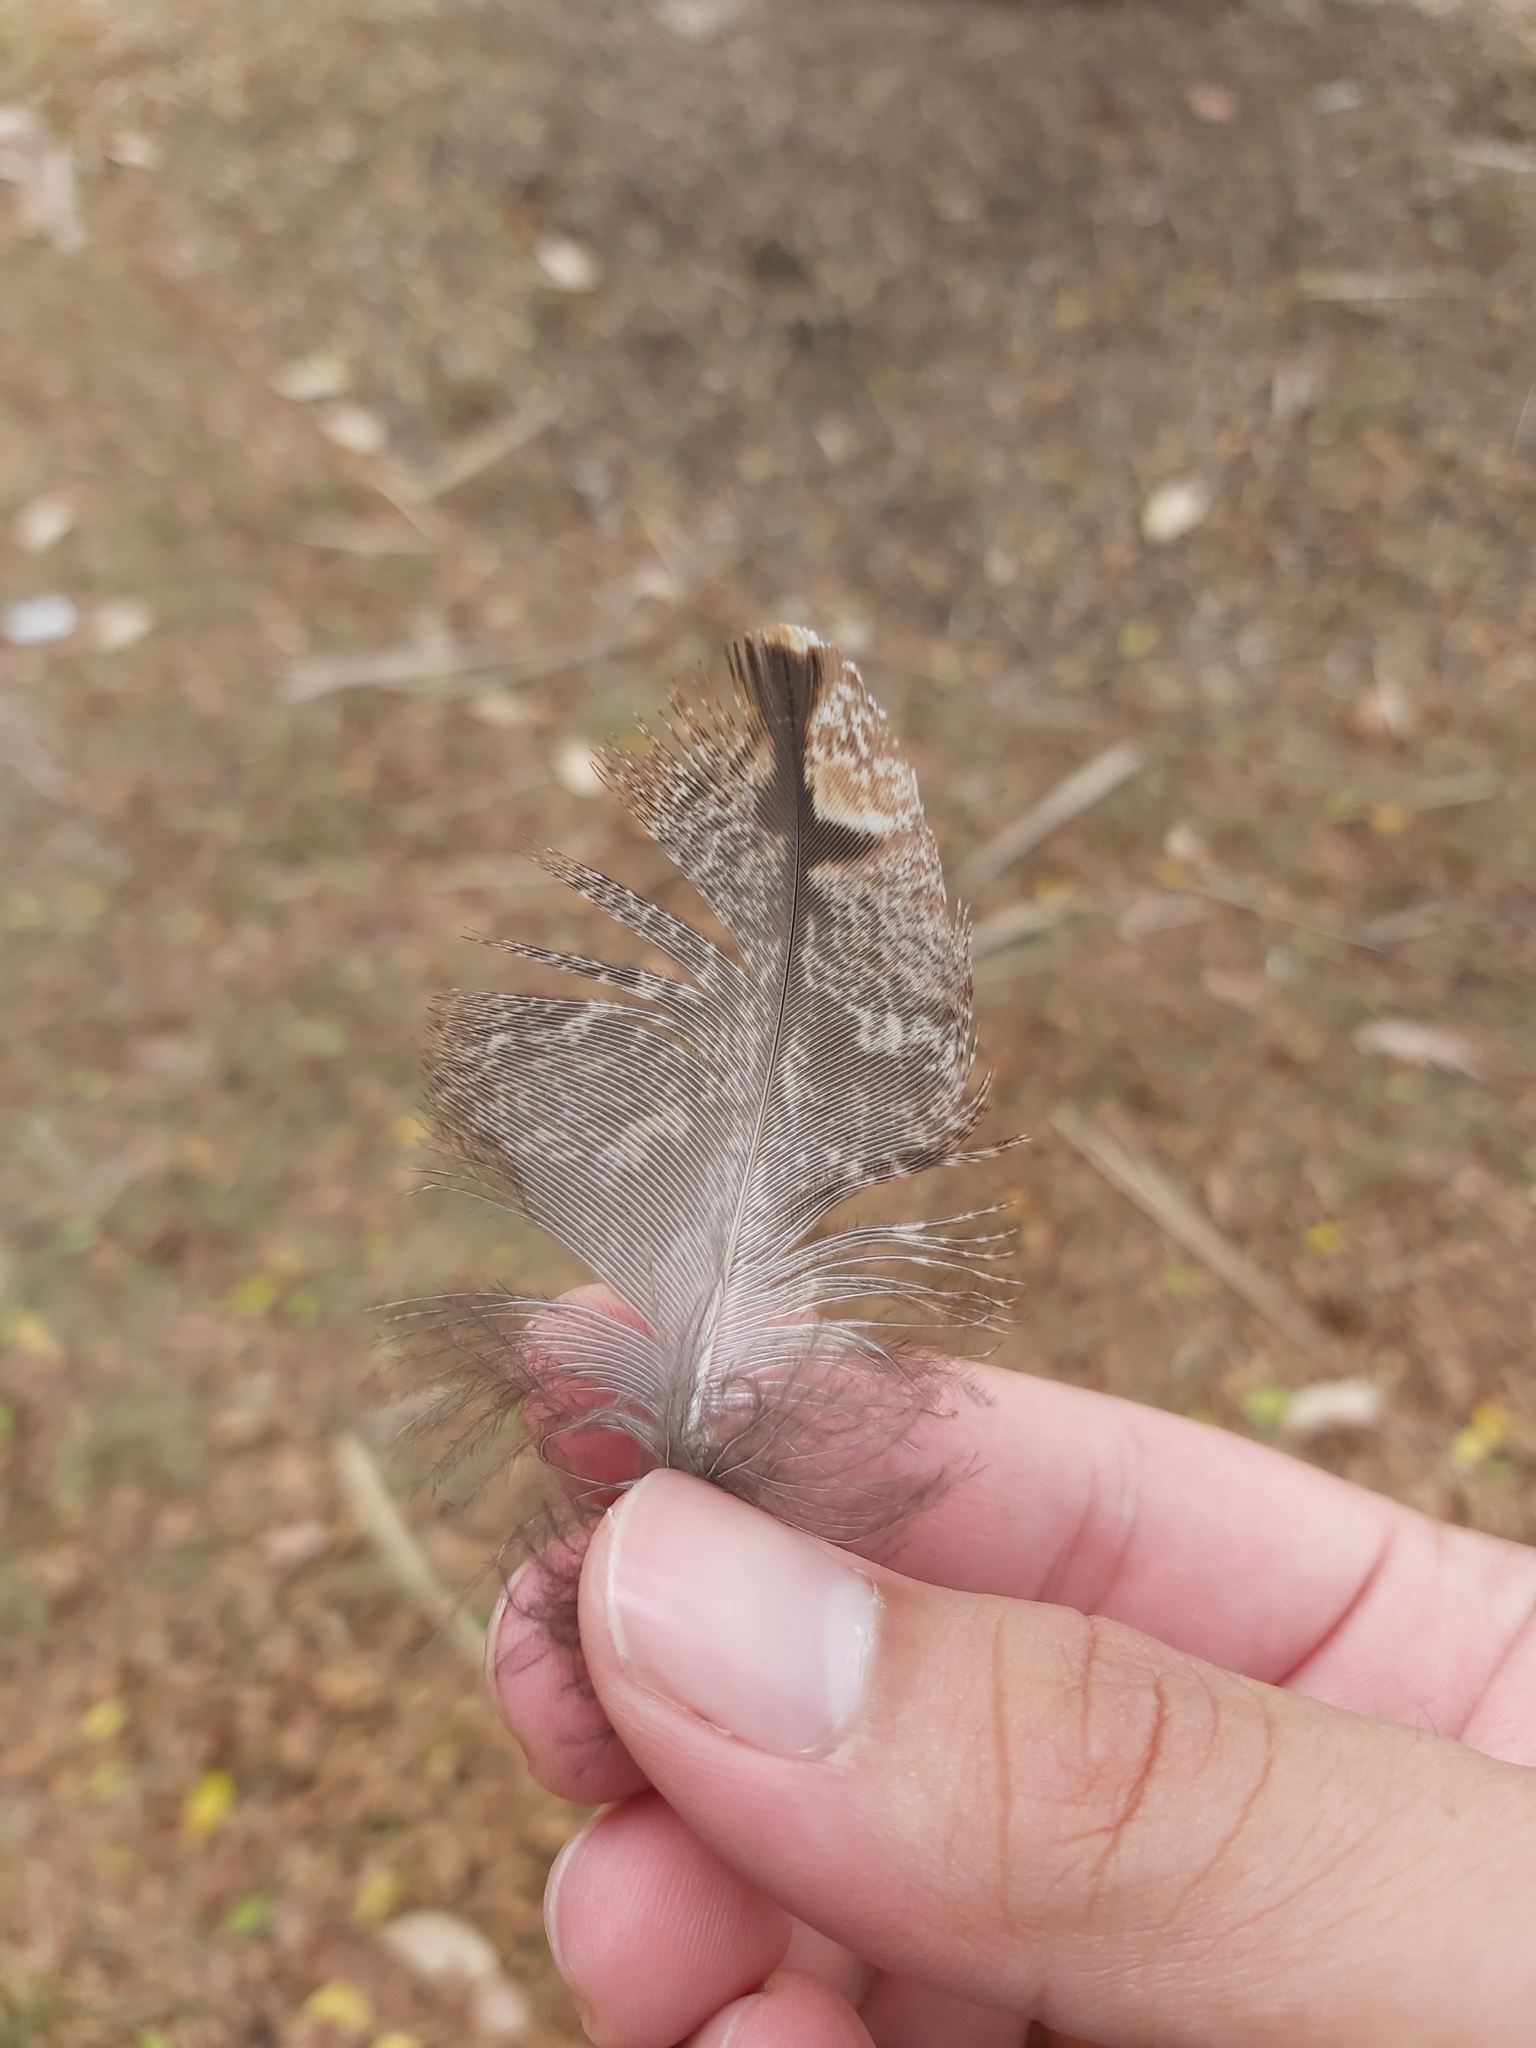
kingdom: Animalia
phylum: Chordata
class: Aves
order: Caprimulgiformes
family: Podargidae
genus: Podargus
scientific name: Podargus strigoides
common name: Tawny frogmouth
